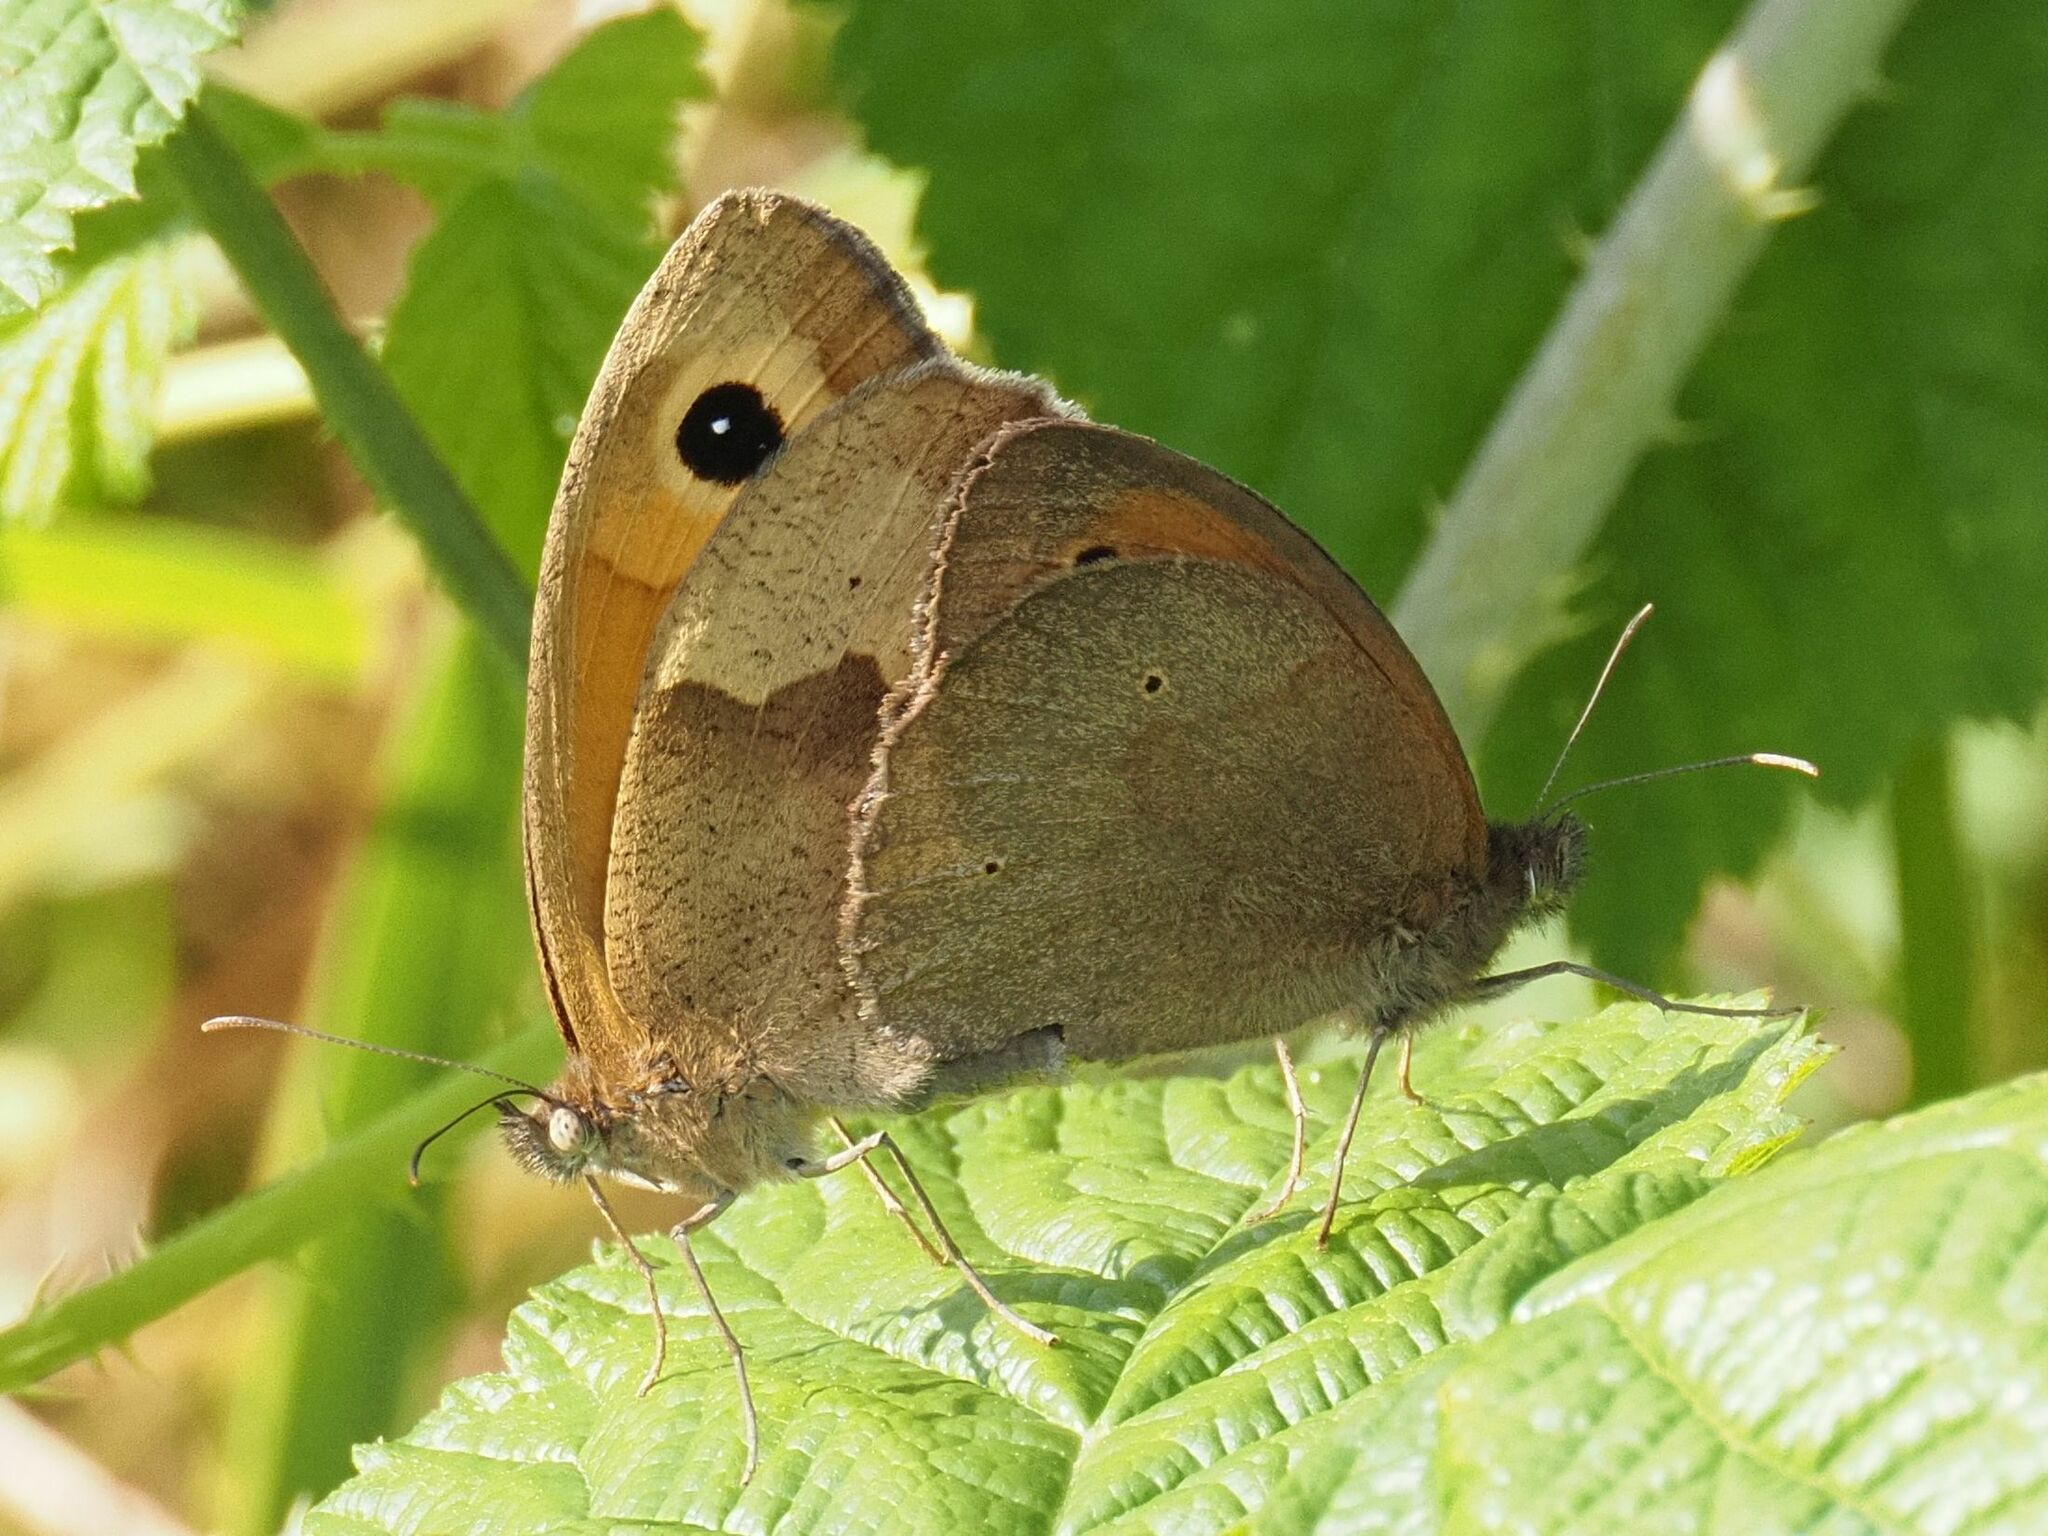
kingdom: Animalia
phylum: Arthropoda
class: Insecta
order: Lepidoptera
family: Nymphalidae
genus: Maniola
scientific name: Maniola jurtina
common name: Meadow brown
